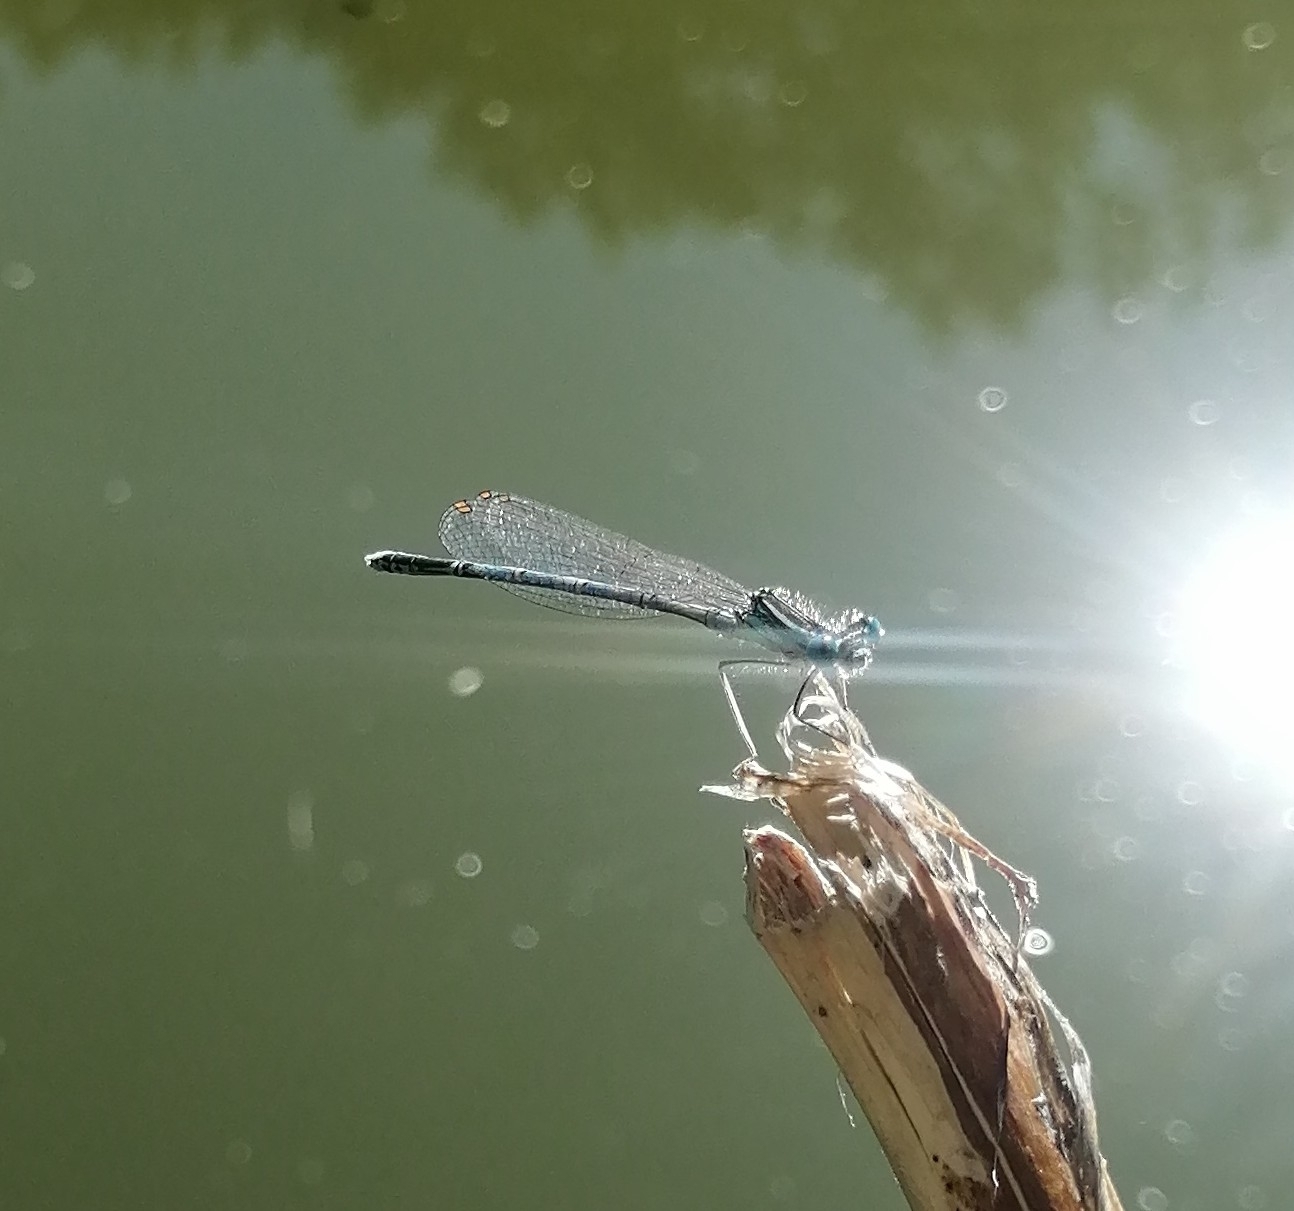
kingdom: Animalia
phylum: Arthropoda
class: Insecta
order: Odonata
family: Platycnemididae
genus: Platycnemis
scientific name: Platycnemis pennipes
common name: White-legged damselfly
